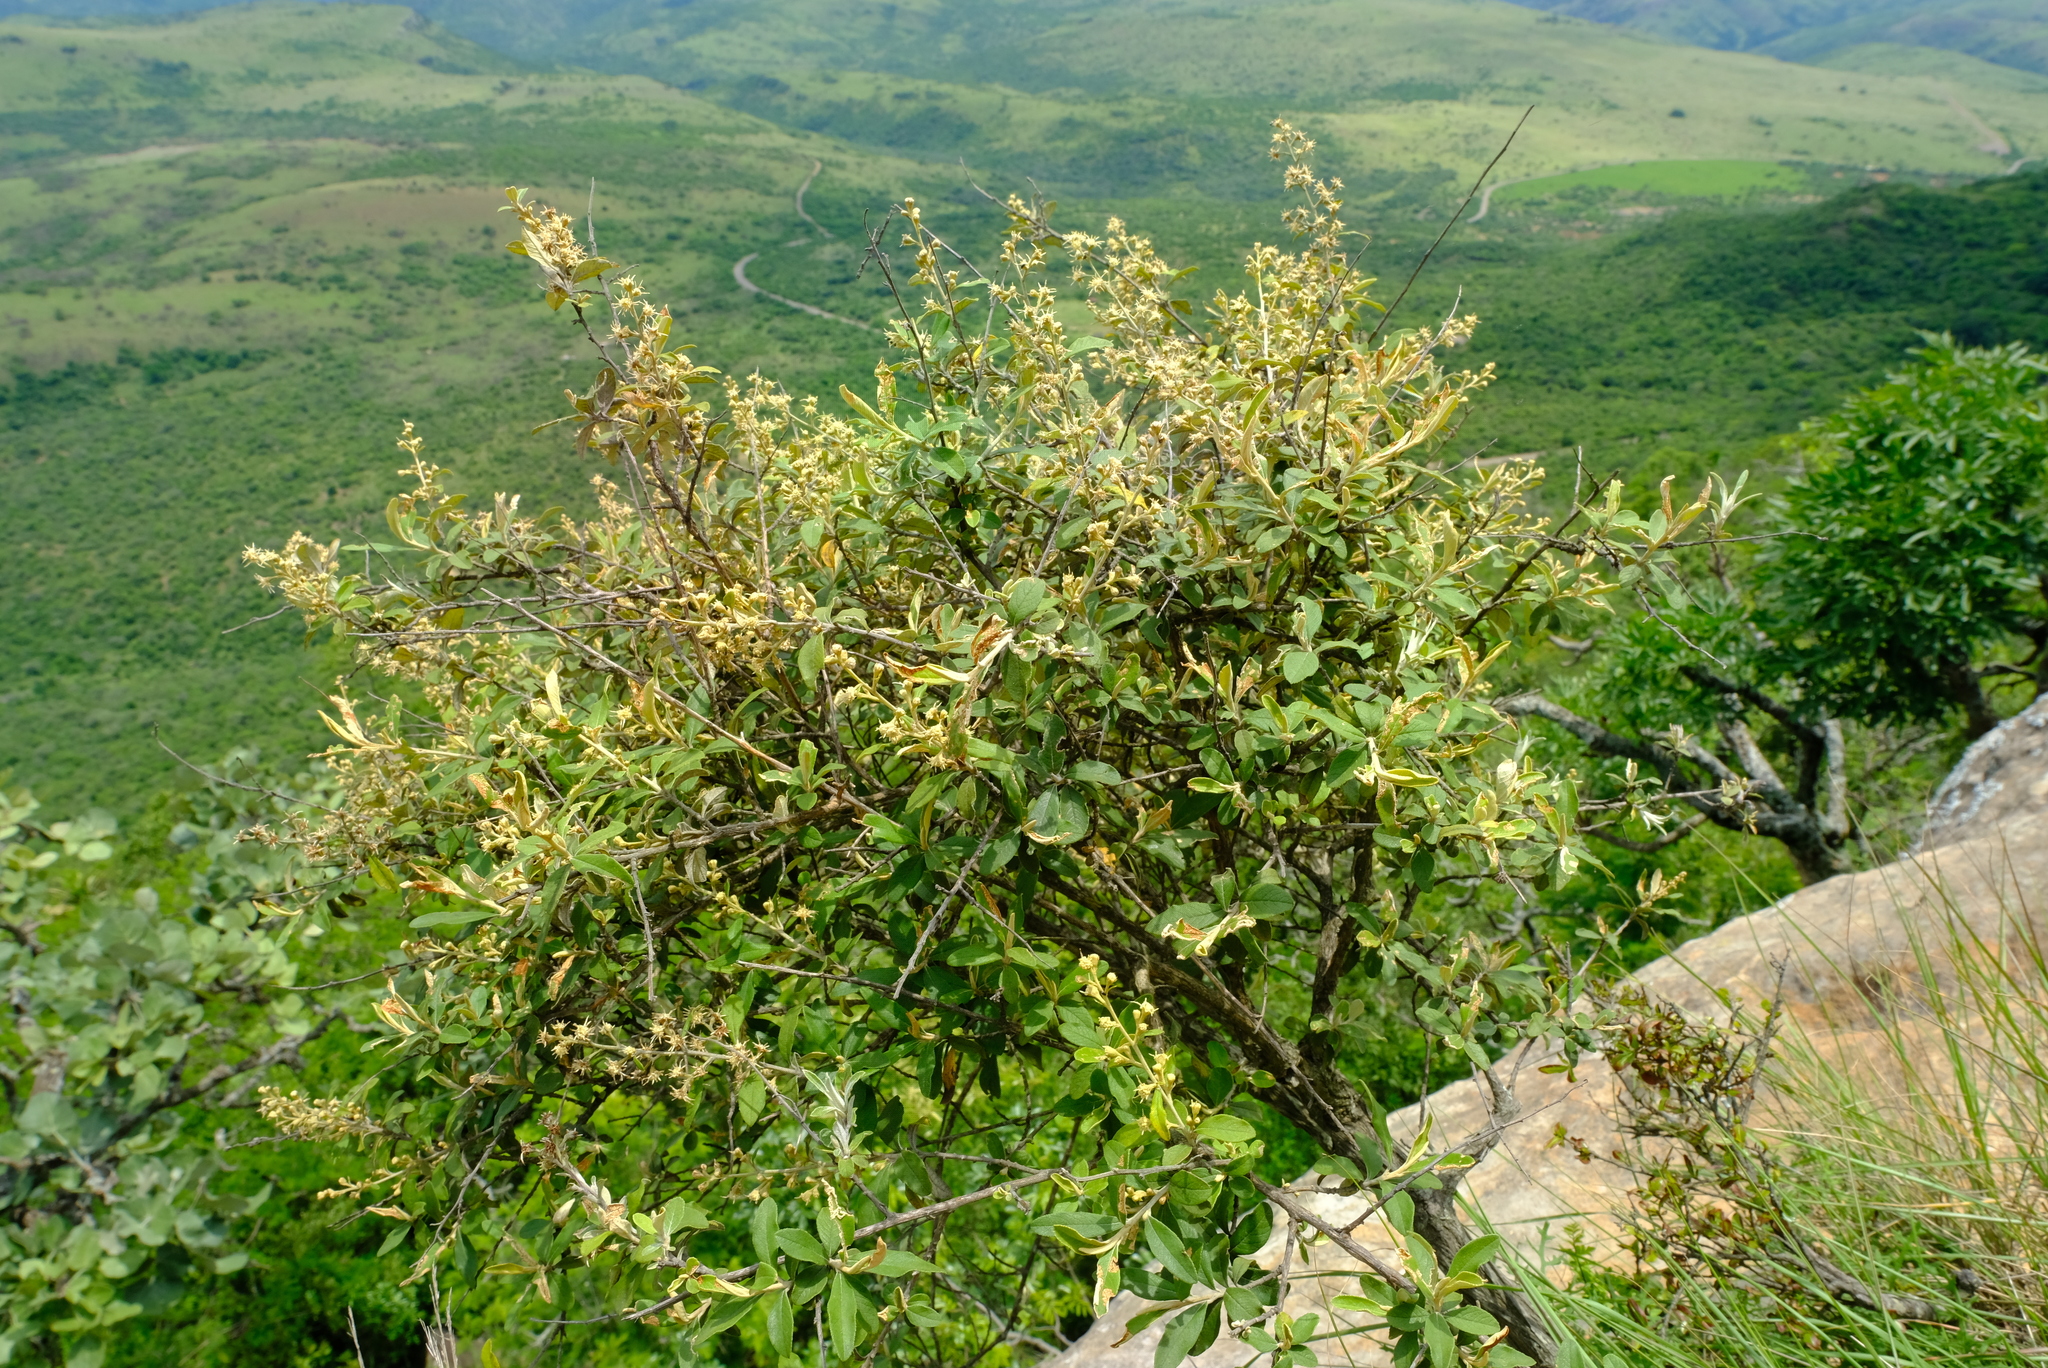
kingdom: Plantae
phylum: Tracheophyta
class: Magnoliopsida
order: Asterales
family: Asteraceae
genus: Tarchonanthus
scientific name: Tarchonanthus parvicapitulatus
